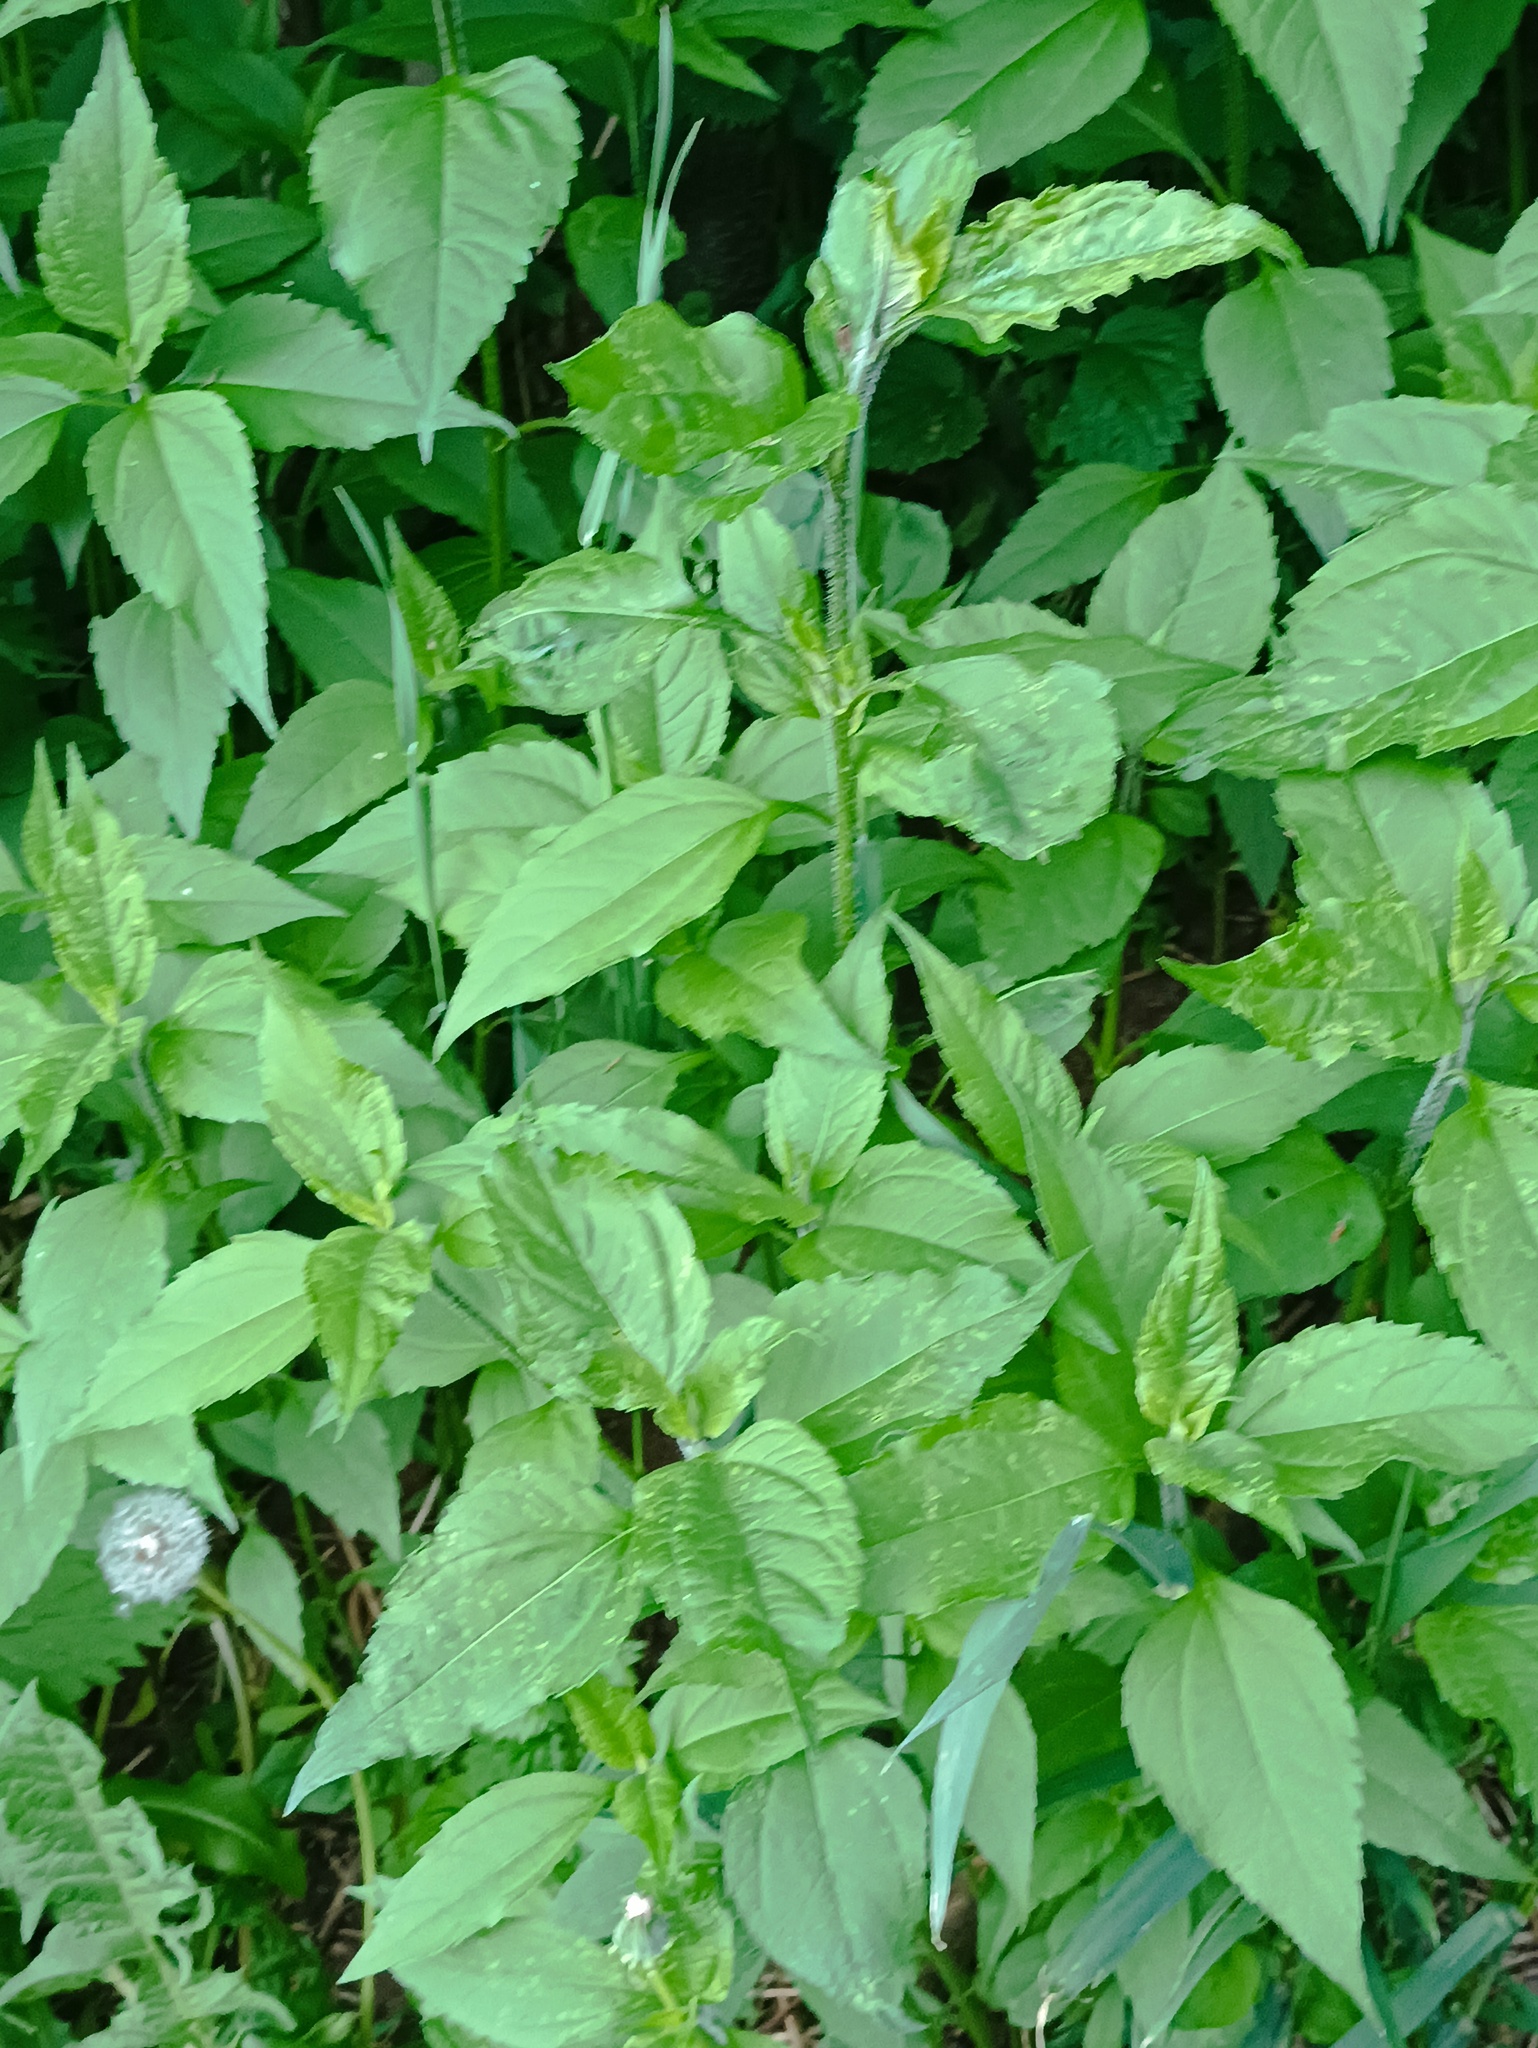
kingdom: Plantae
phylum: Tracheophyta
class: Magnoliopsida
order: Asterales
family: Asteraceae
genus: Helianthus
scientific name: Helianthus tuberosus
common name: Jerusalem artichoke
